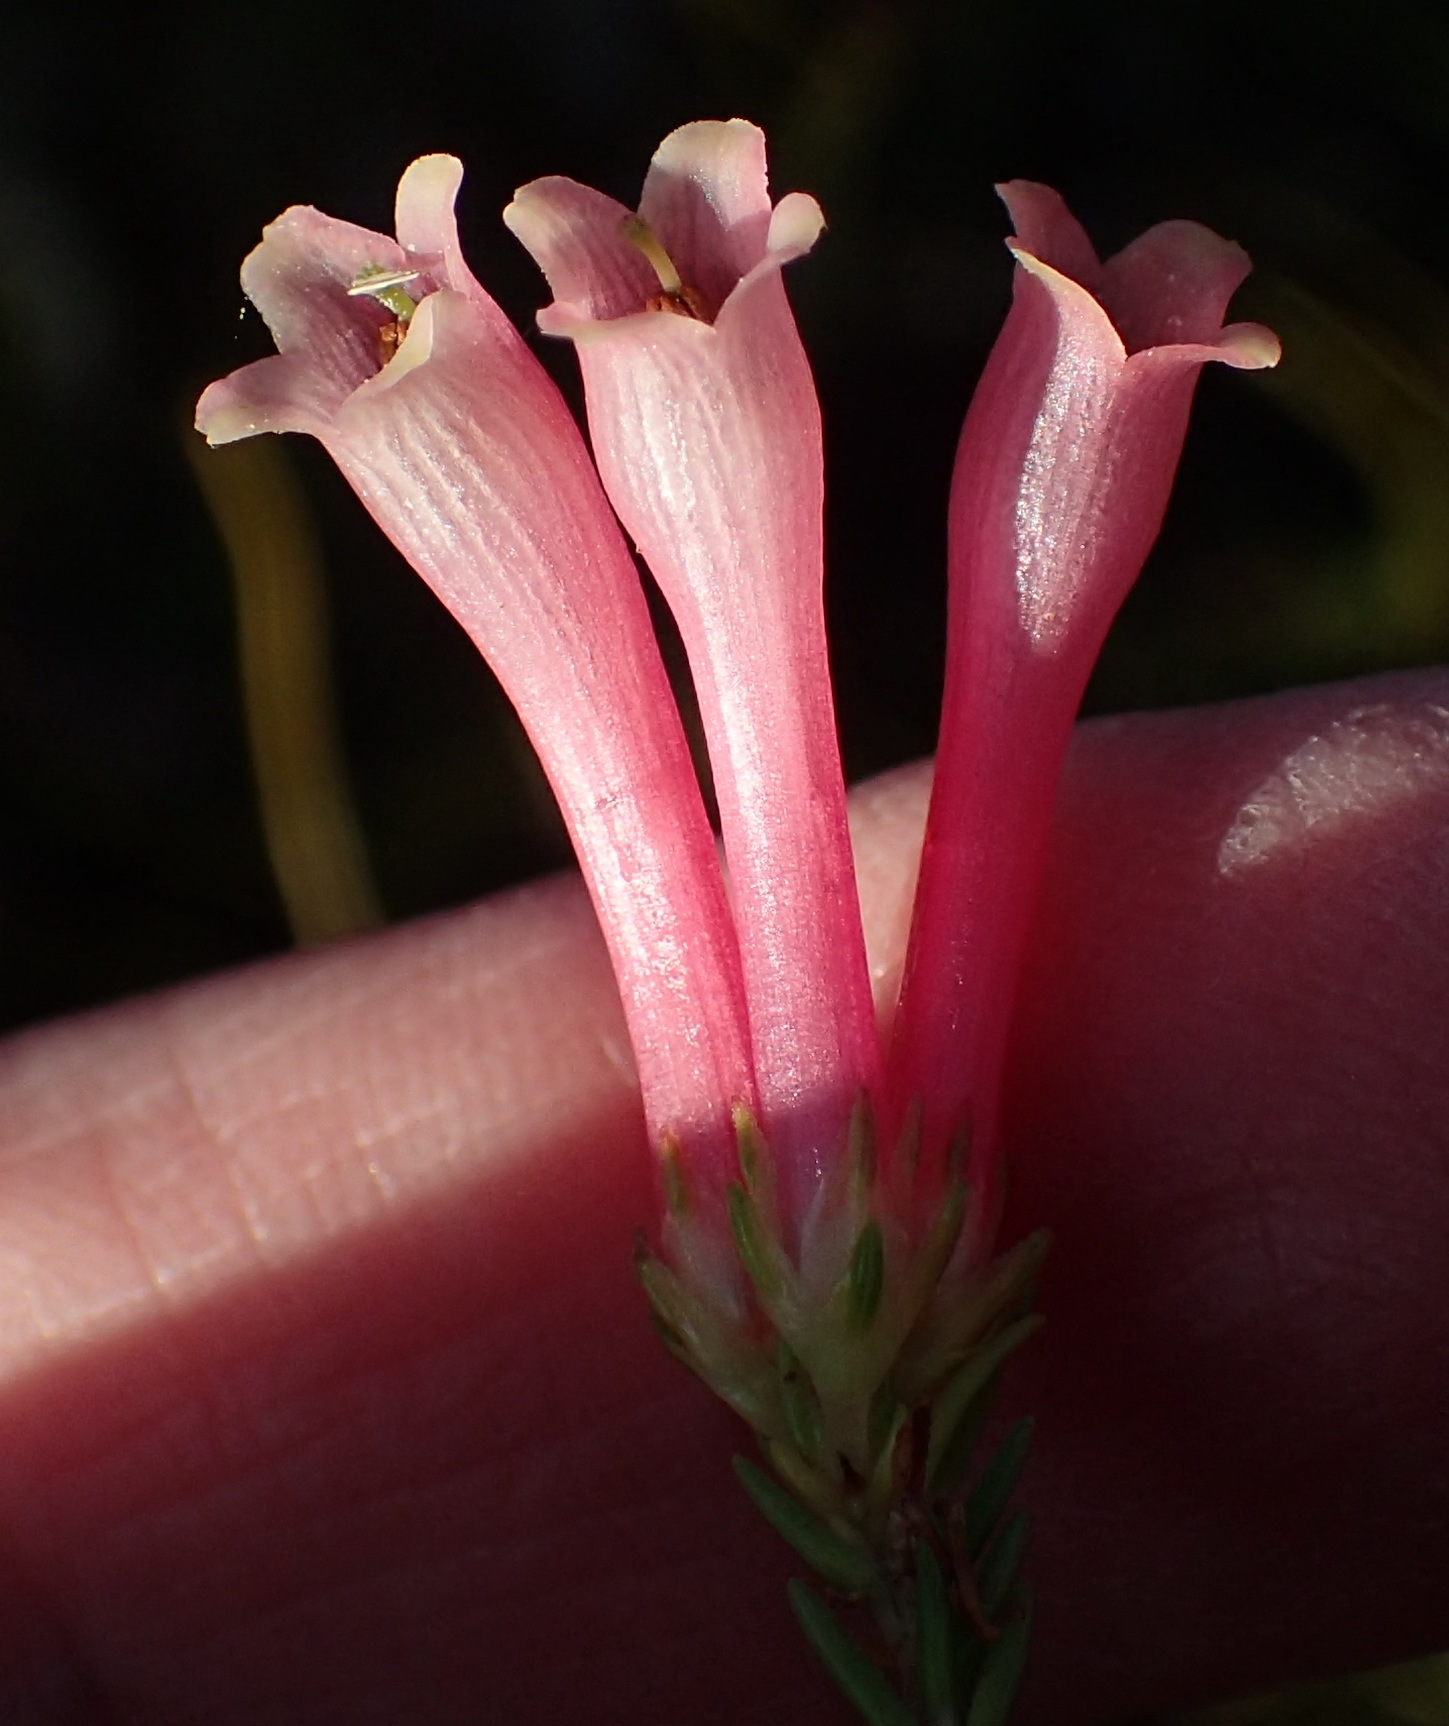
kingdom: Plantae
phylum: Tracheophyta
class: Magnoliopsida
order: Ericales
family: Ericaceae
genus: Erica
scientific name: Erica discolor
